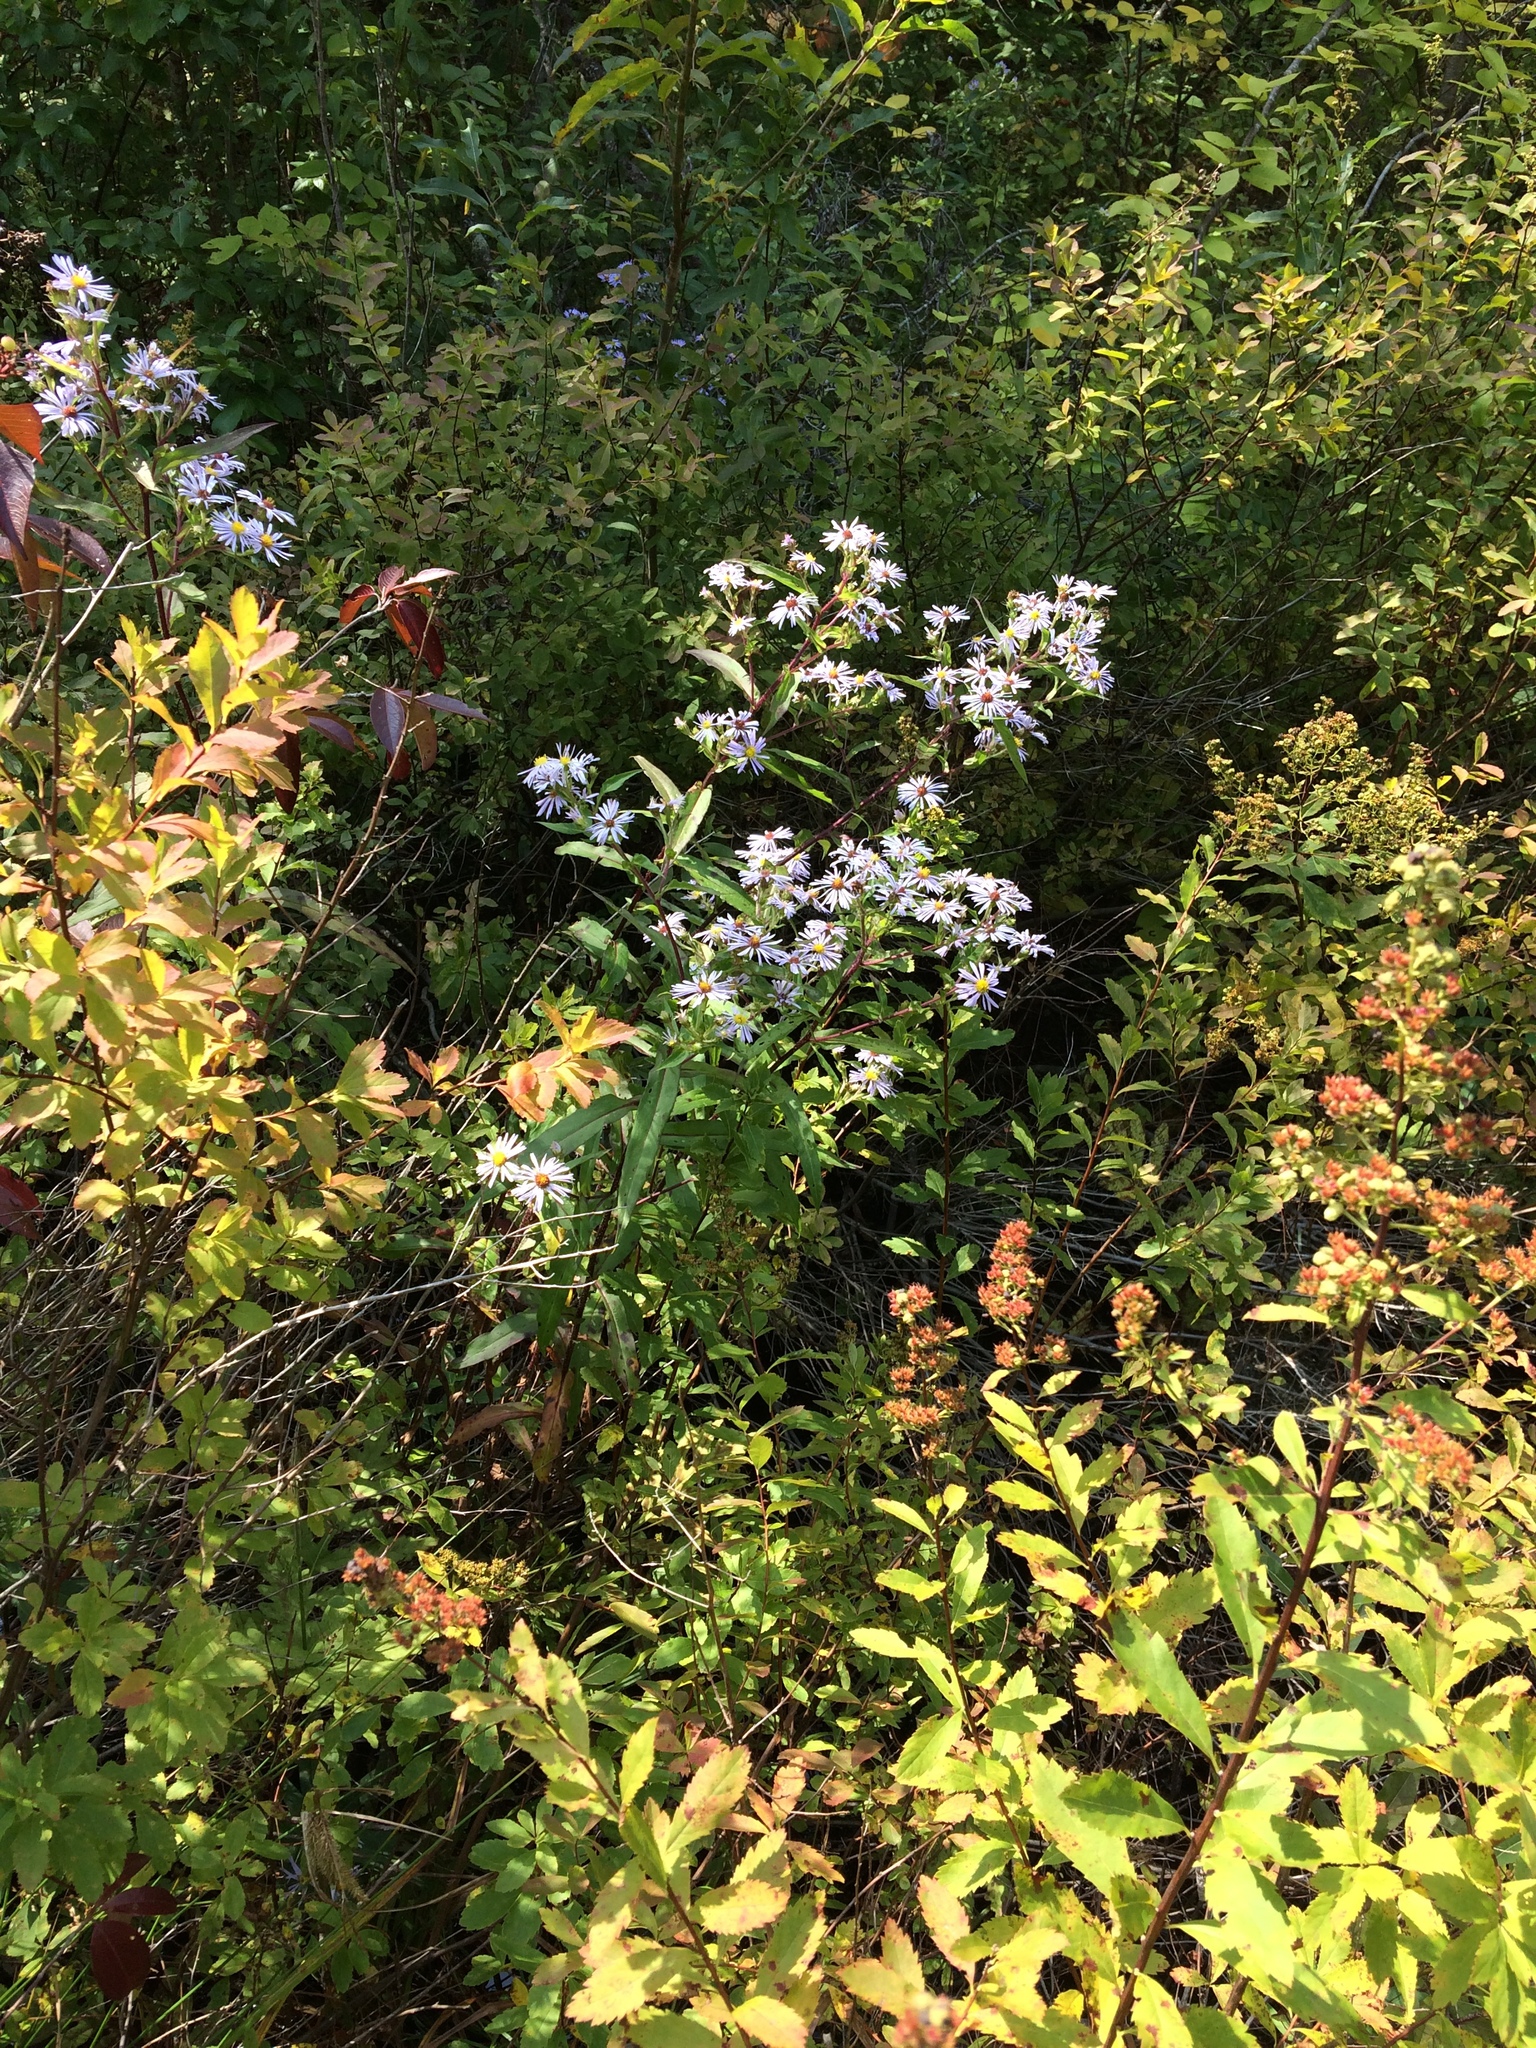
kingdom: Plantae
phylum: Tracheophyta
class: Magnoliopsida
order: Asterales
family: Asteraceae
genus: Symphyotrichum
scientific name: Symphyotrichum puniceum
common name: Bog aster
